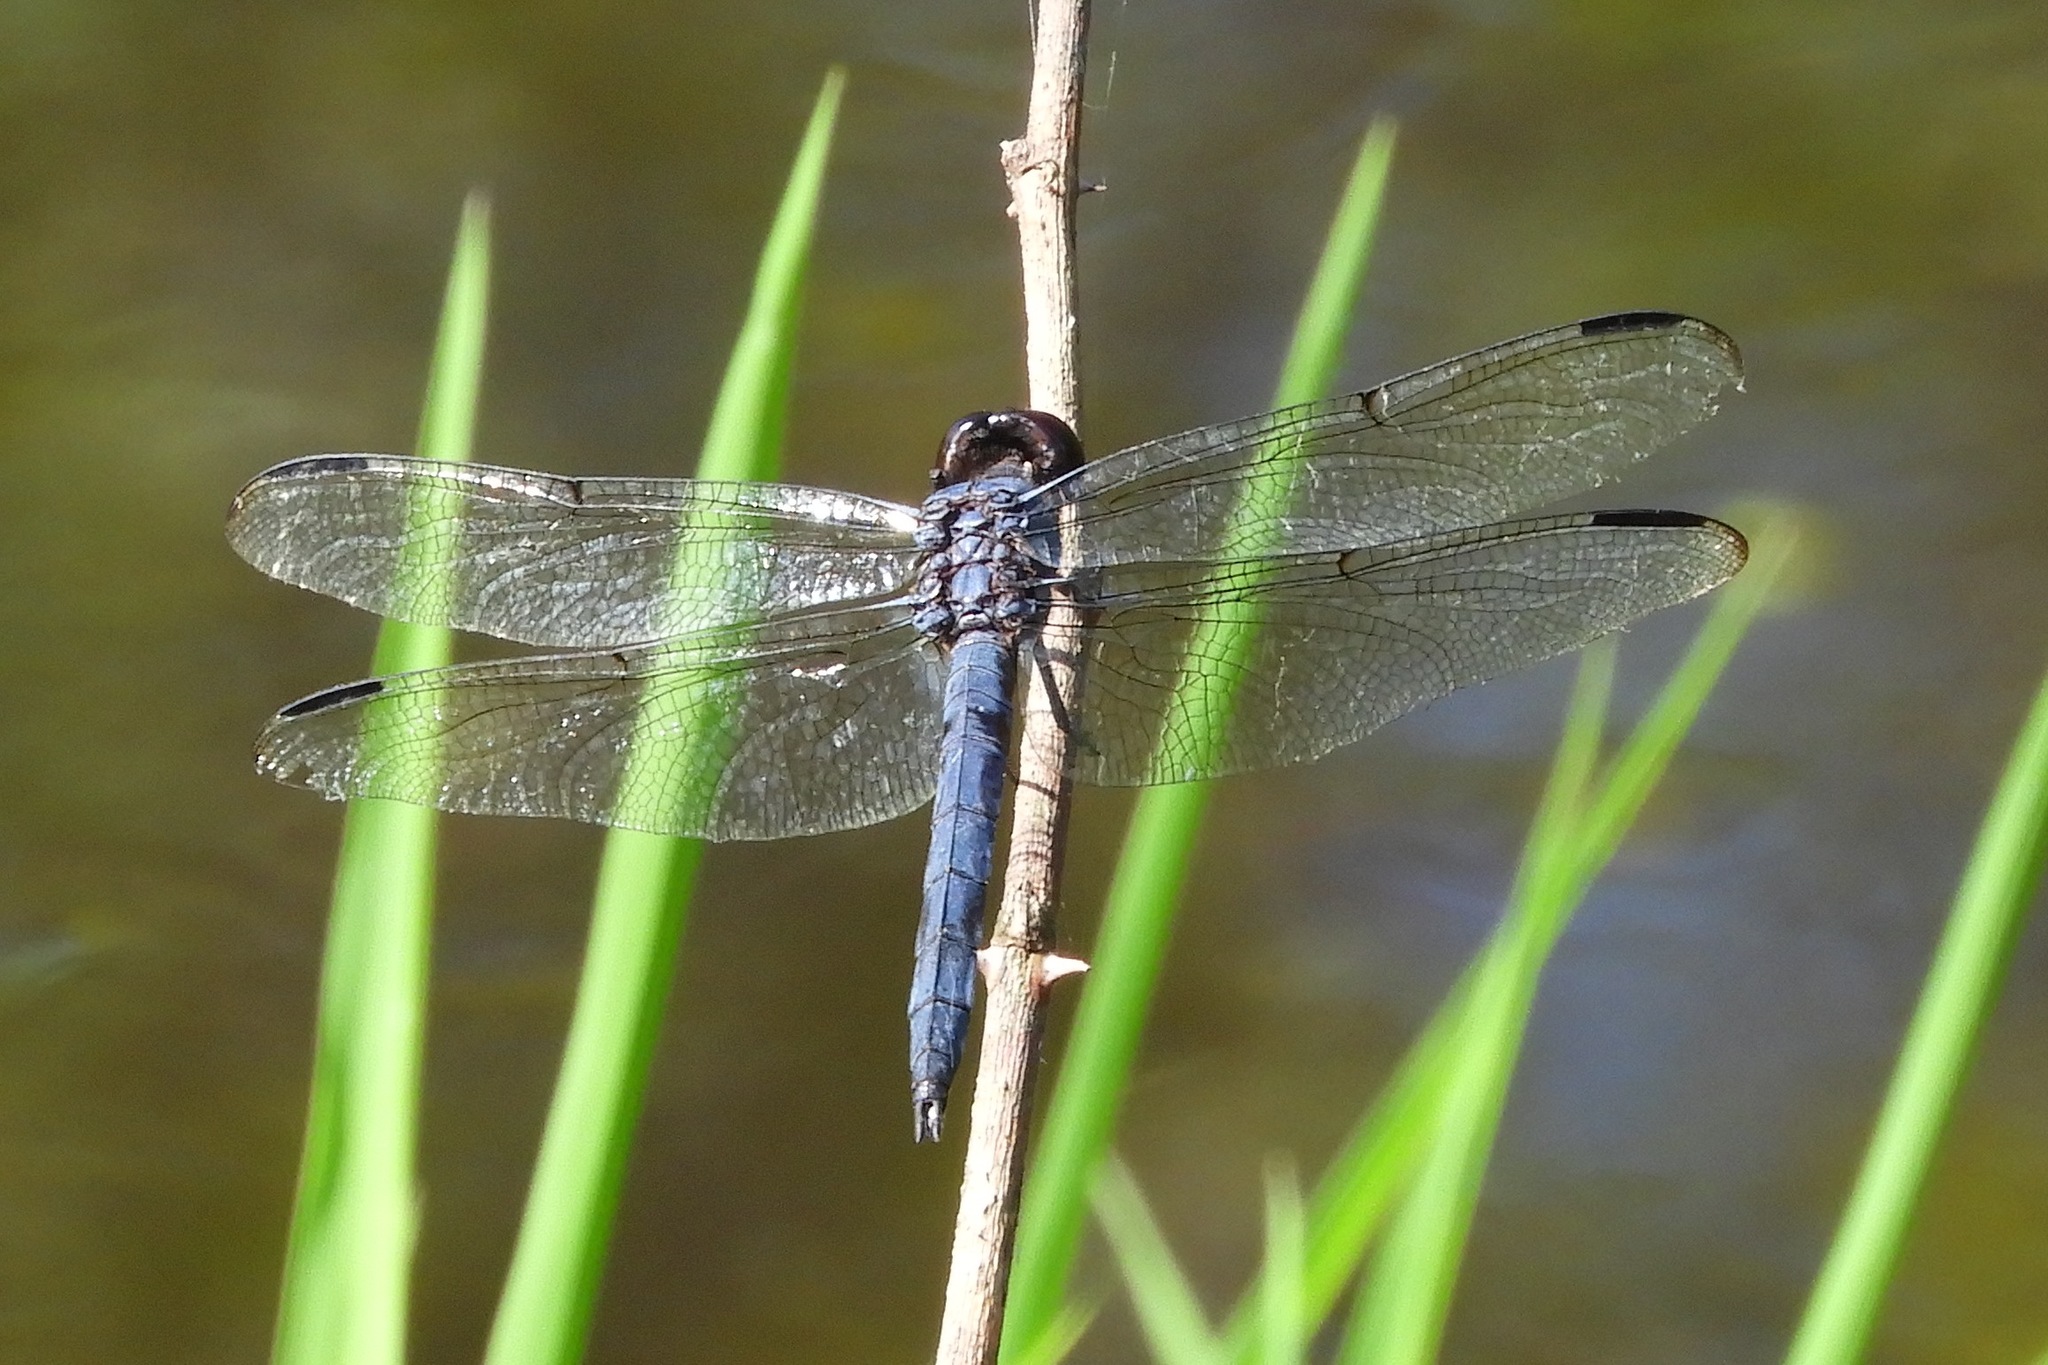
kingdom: Animalia
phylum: Arthropoda
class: Insecta
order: Odonata
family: Libellulidae
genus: Libellula
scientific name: Libellula incesta
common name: Slaty skimmer
